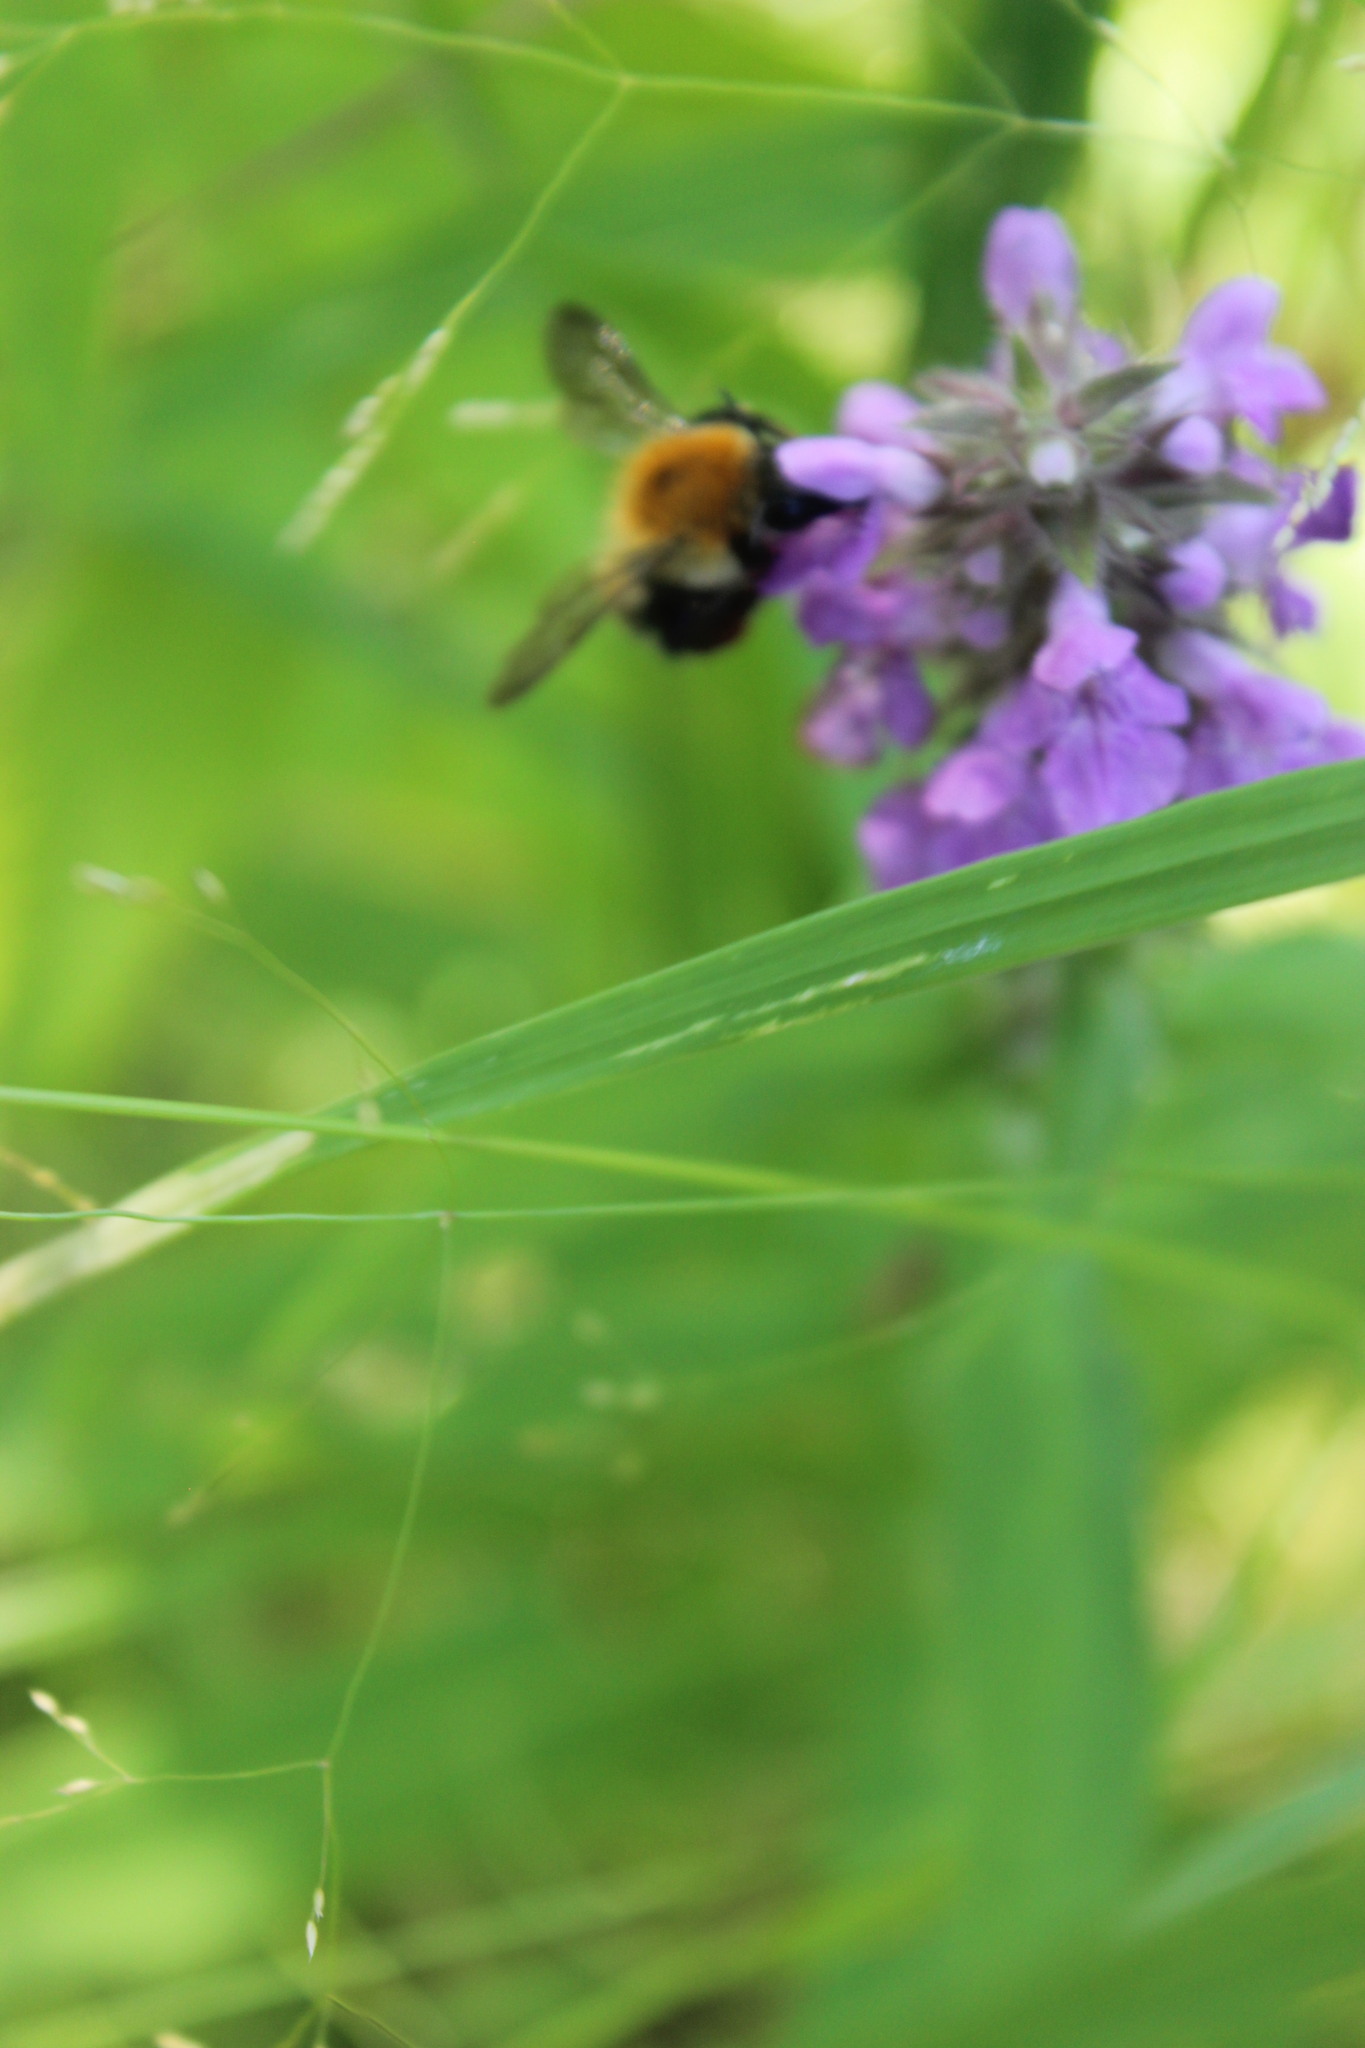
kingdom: Plantae
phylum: Tracheophyta
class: Magnoliopsida
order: Lamiales
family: Lamiaceae
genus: Stachys
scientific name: Stachys palustris
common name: Marsh woundwort
